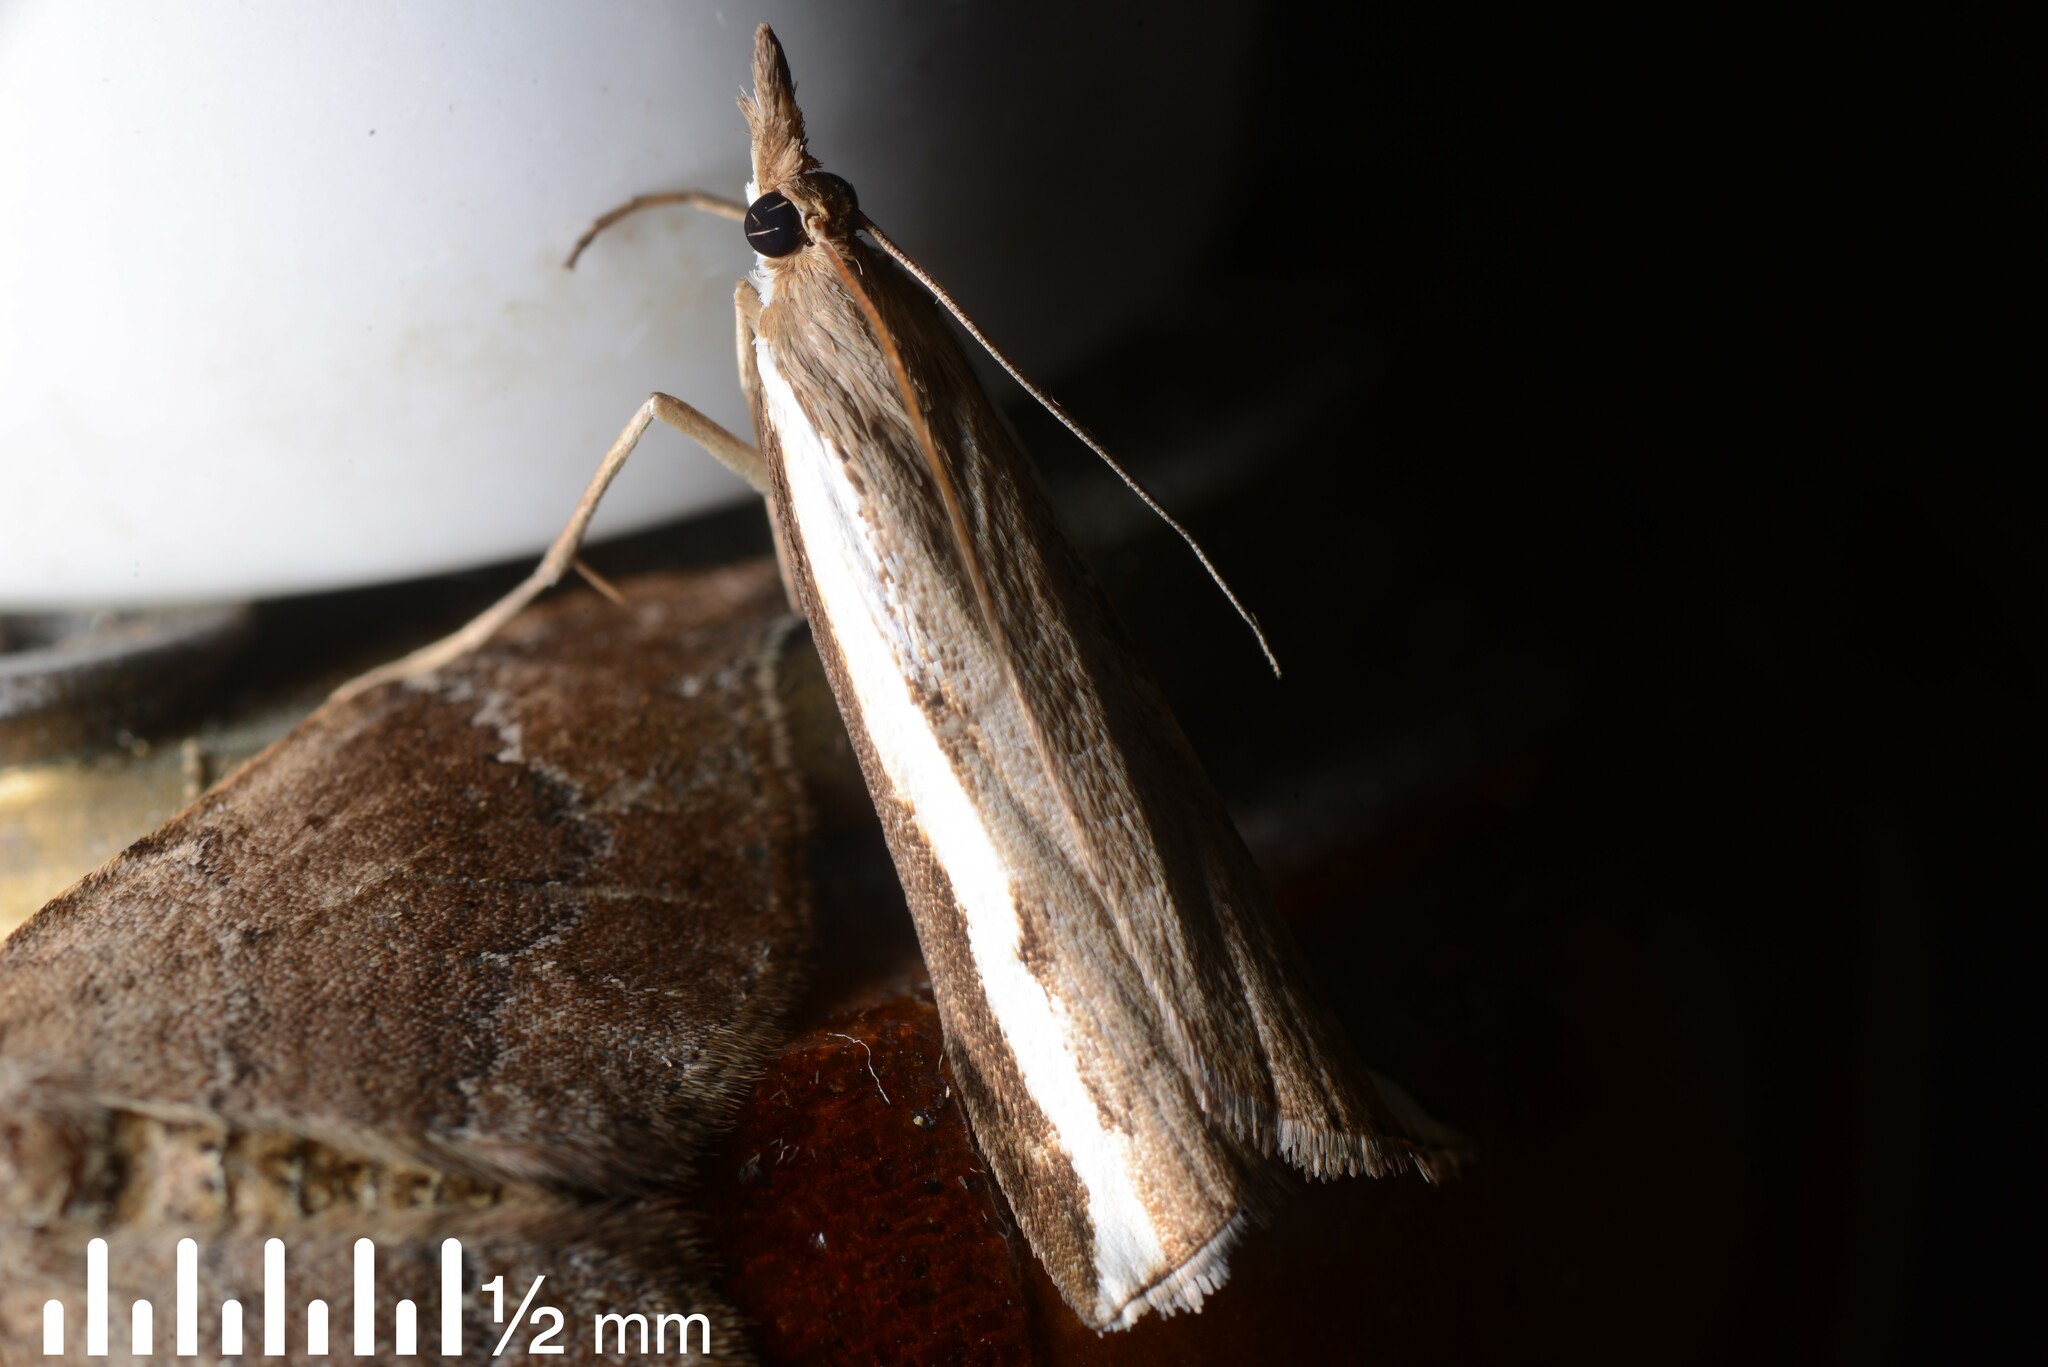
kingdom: Animalia
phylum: Arthropoda
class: Insecta
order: Lepidoptera
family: Crambidae
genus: Orocrambus
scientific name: Orocrambus flexuosellus
